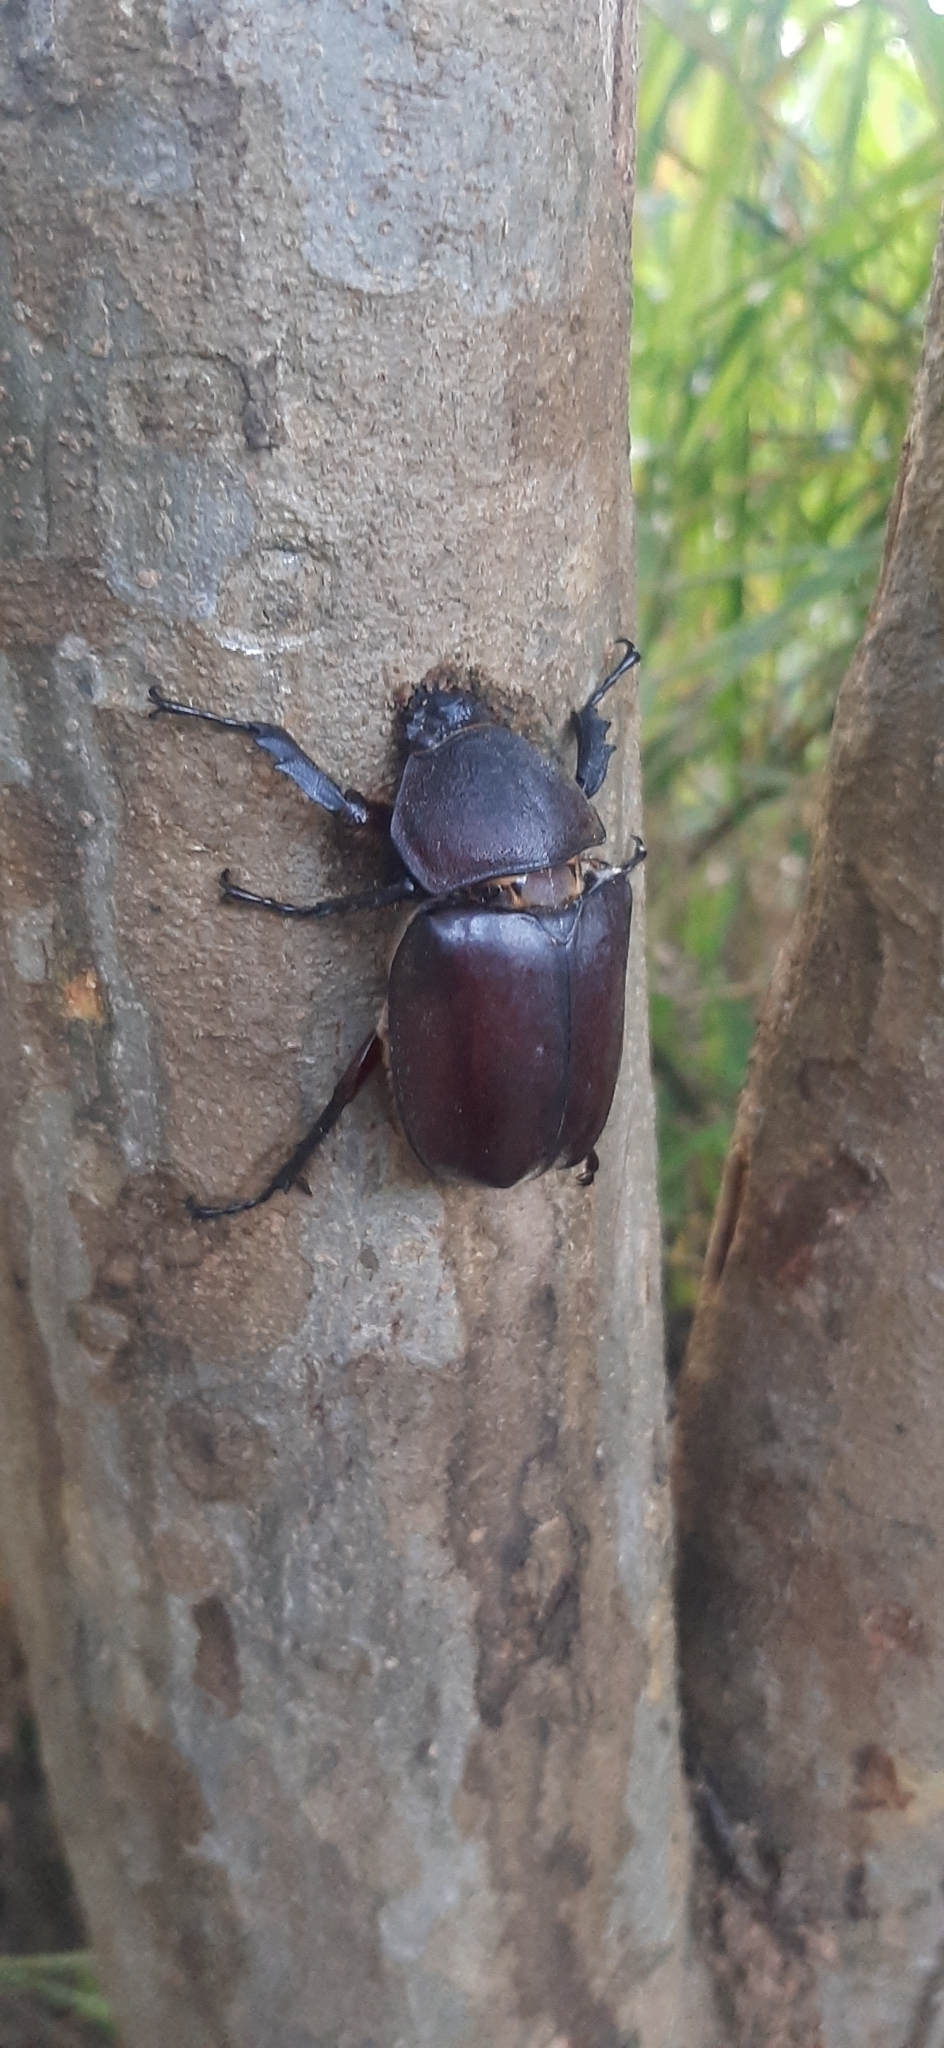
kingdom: Animalia
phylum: Arthropoda
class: Insecta
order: Coleoptera
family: Scarabaeidae
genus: Trypoxylus
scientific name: Trypoxylus dichotomus
